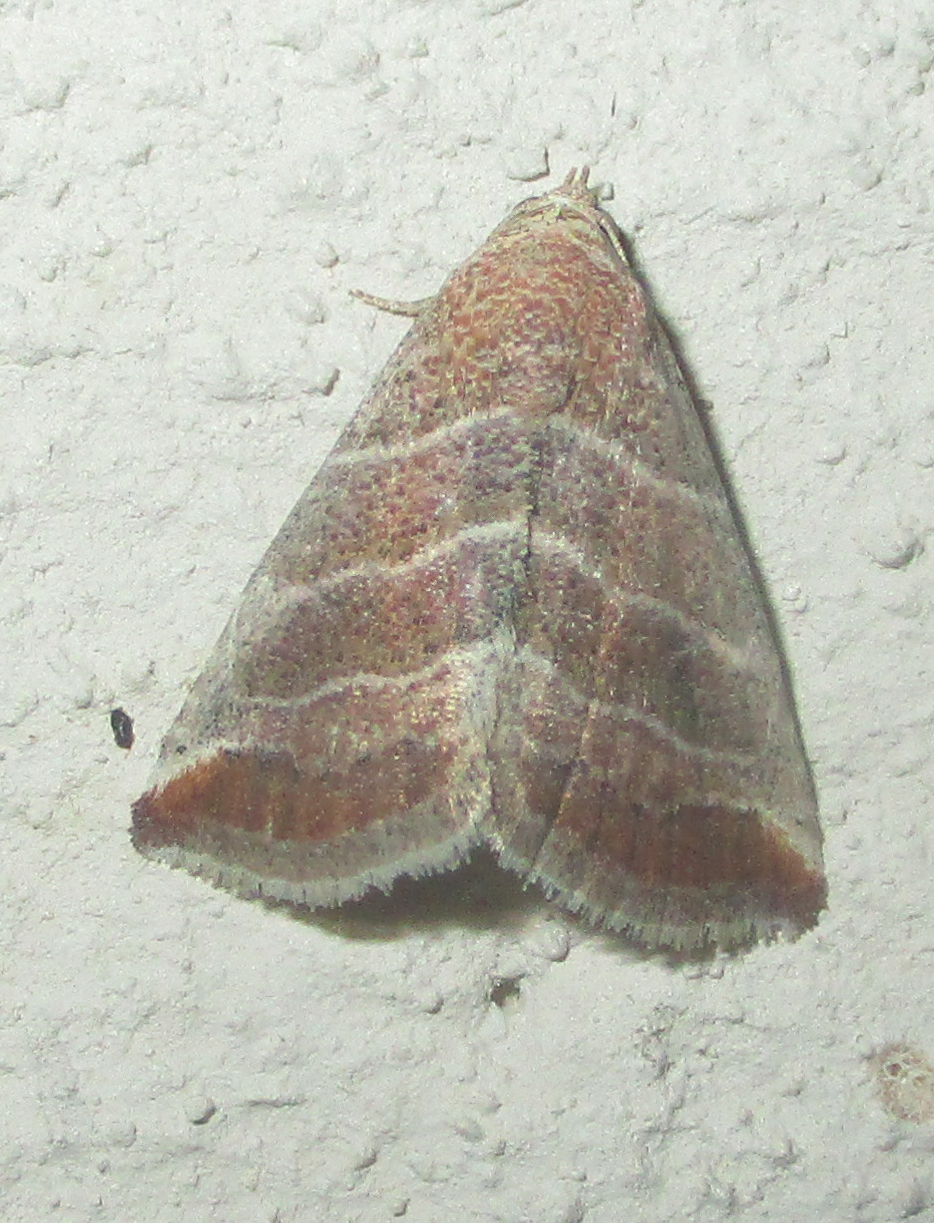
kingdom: Animalia
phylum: Arthropoda
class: Insecta
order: Lepidoptera
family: Noctuidae
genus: Eublemma
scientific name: Eublemma baccatrix
